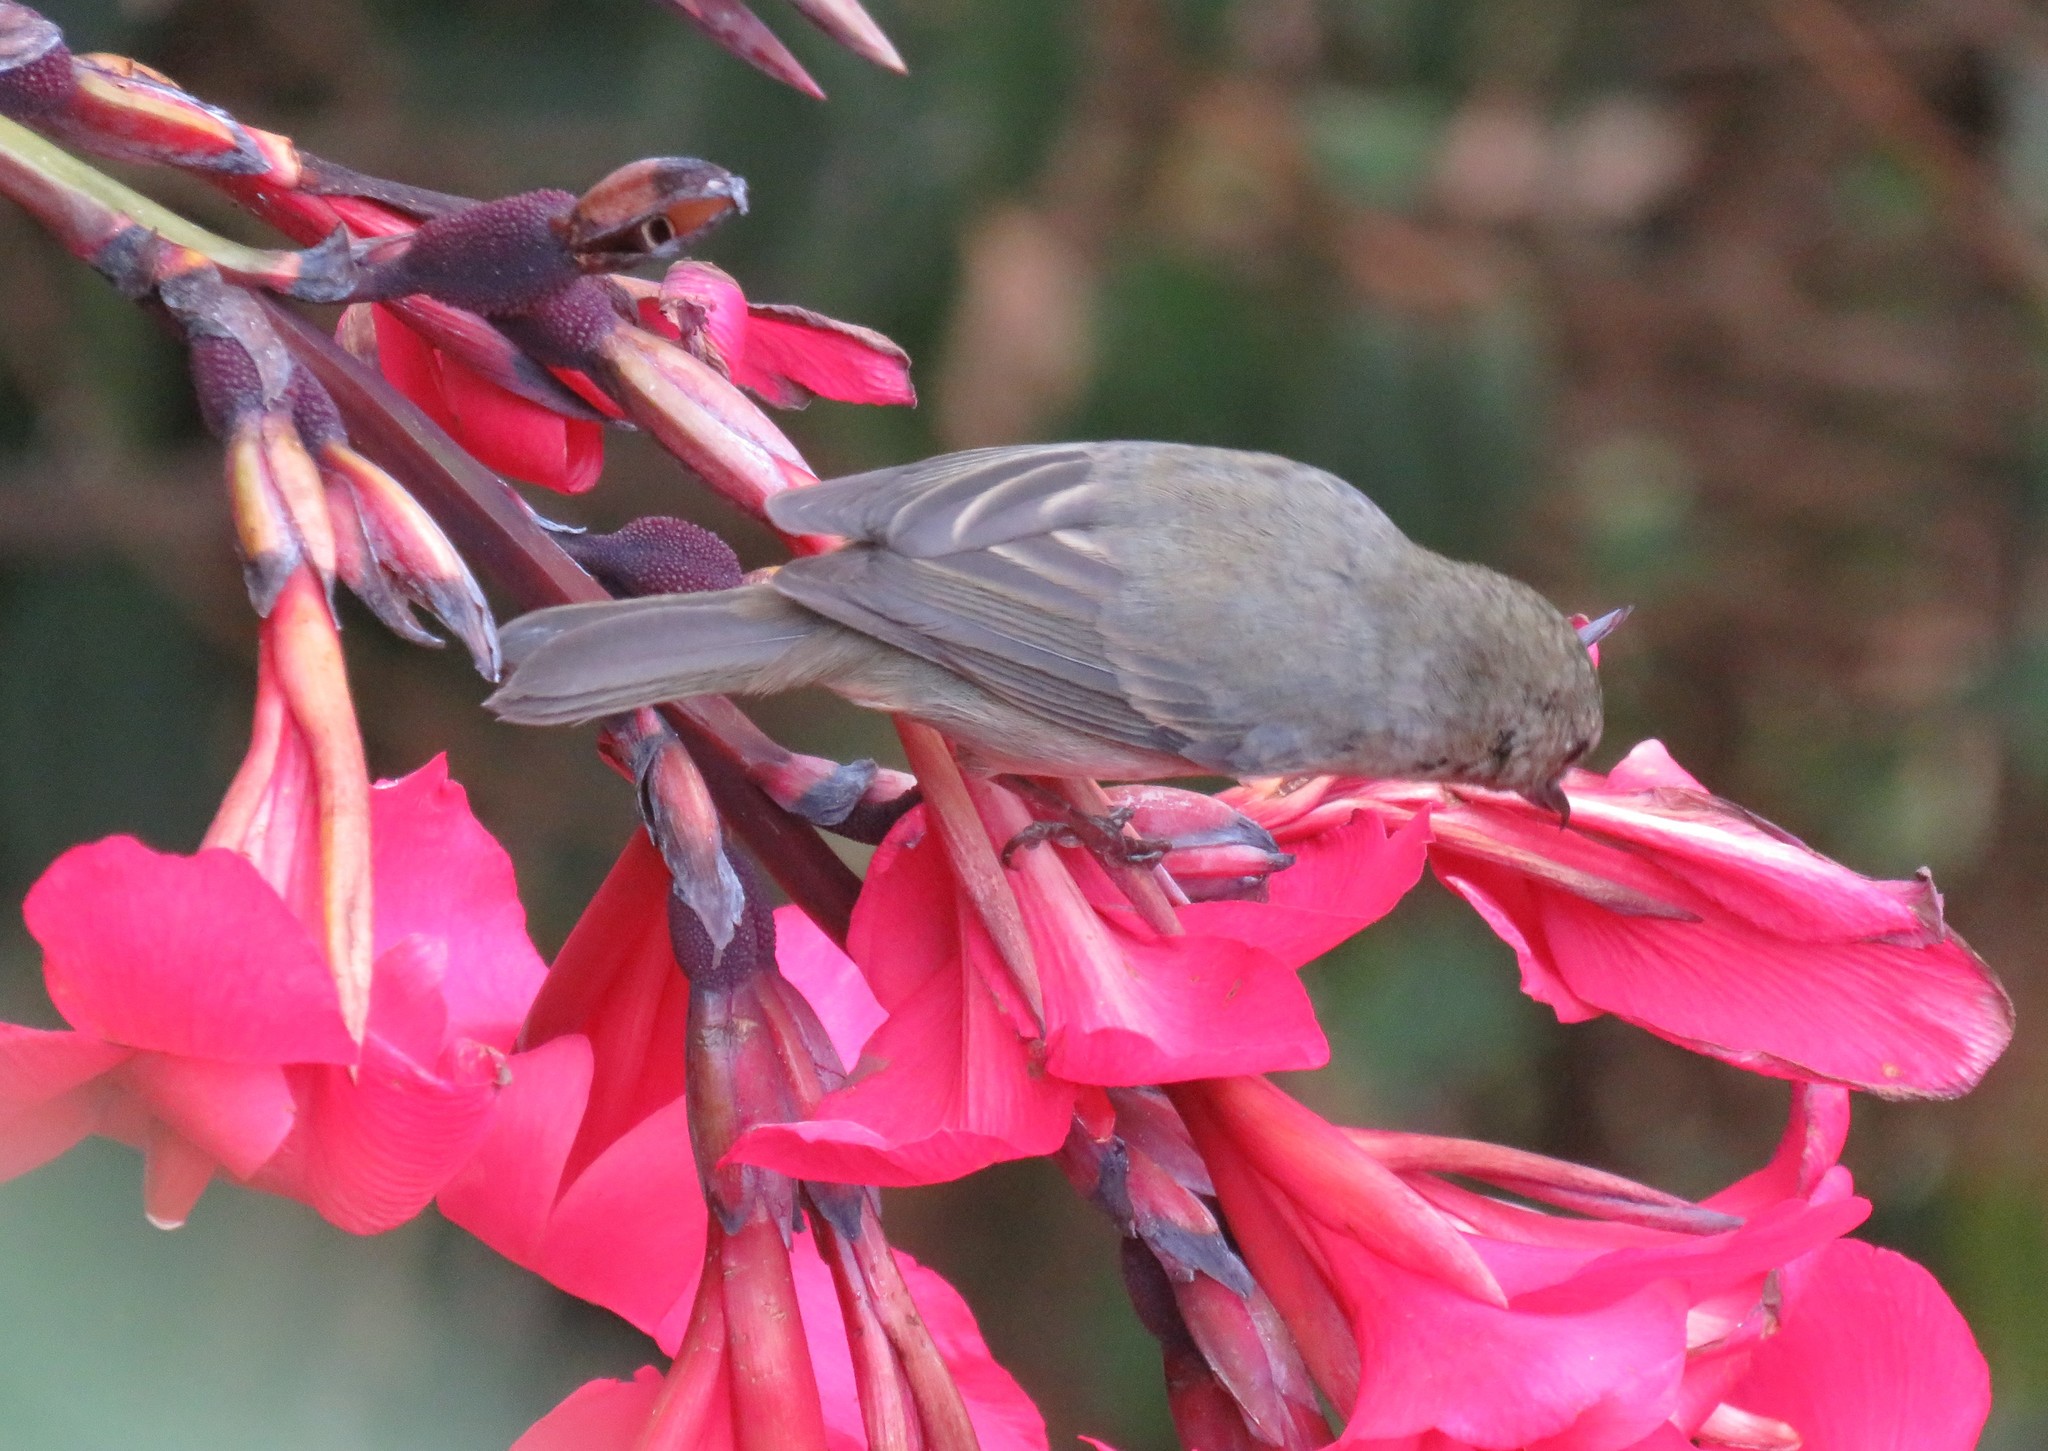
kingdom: Animalia
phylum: Chordata
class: Aves
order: Passeriformes
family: Thraupidae
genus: Diglossa
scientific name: Diglossa plumbea
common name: Slaty flowerpiercer
